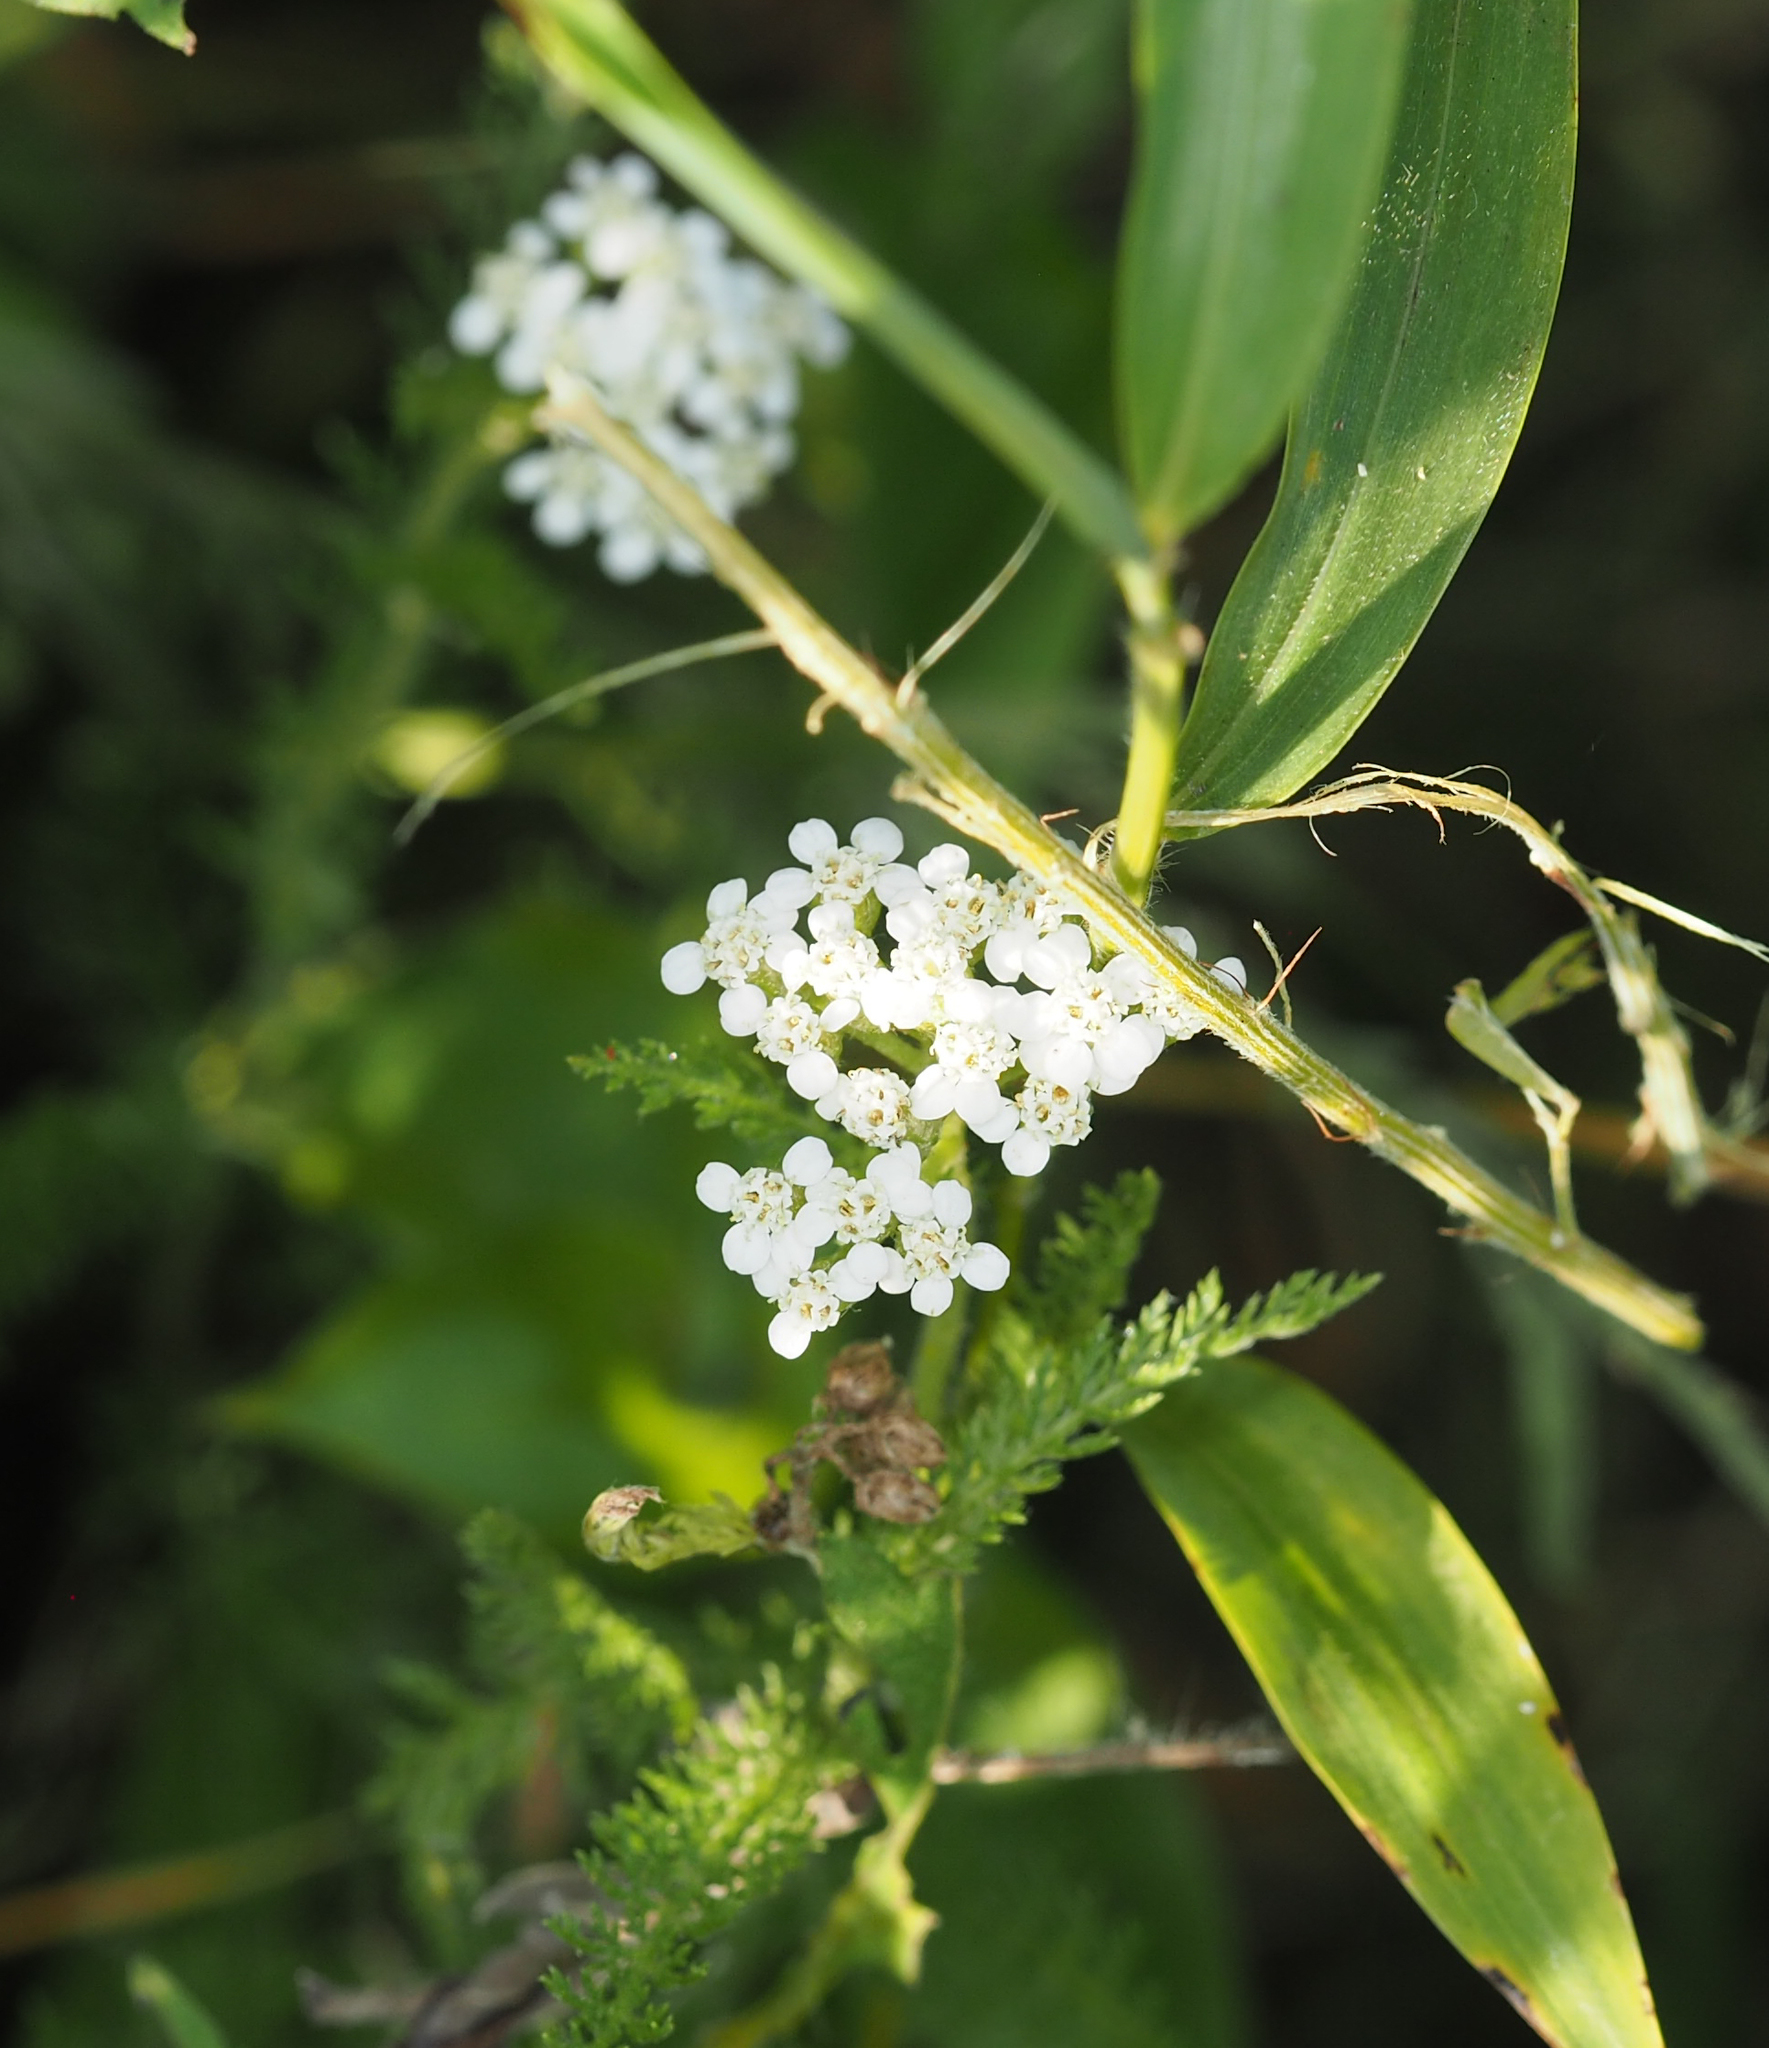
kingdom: Plantae
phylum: Tracheophyta
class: Magnoliopsida
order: Asterales
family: Asteraceae
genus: Achillea
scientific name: Achillea millefolium
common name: Yarrow
